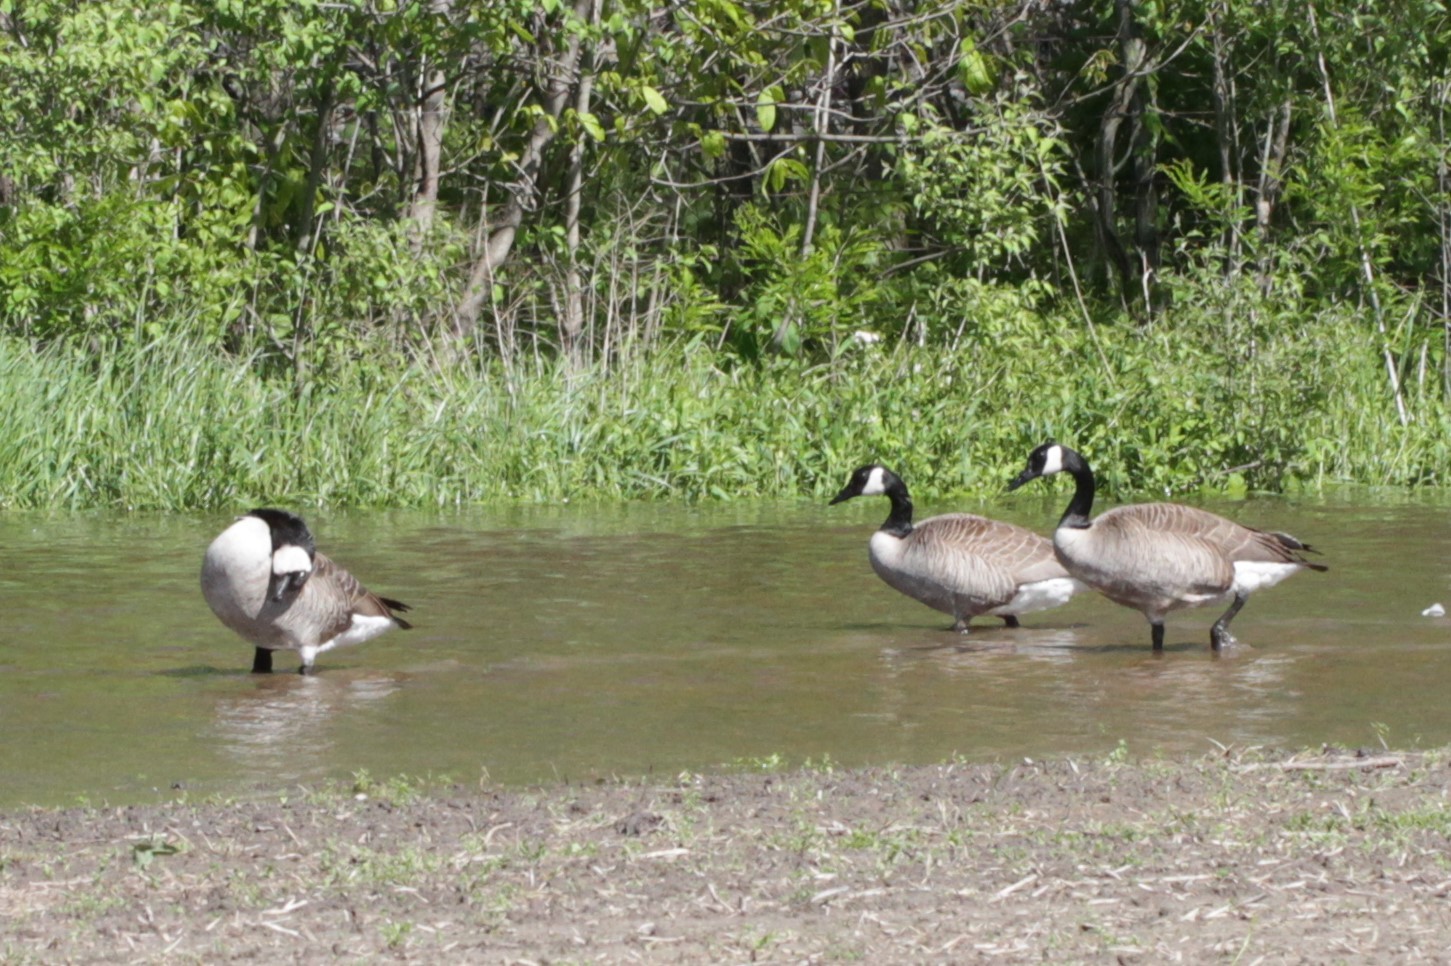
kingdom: Animalia
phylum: Chordata
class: Aves
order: Anseriformes
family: Anatidae
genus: Branta
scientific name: Branta canadensis
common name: Canada goose
